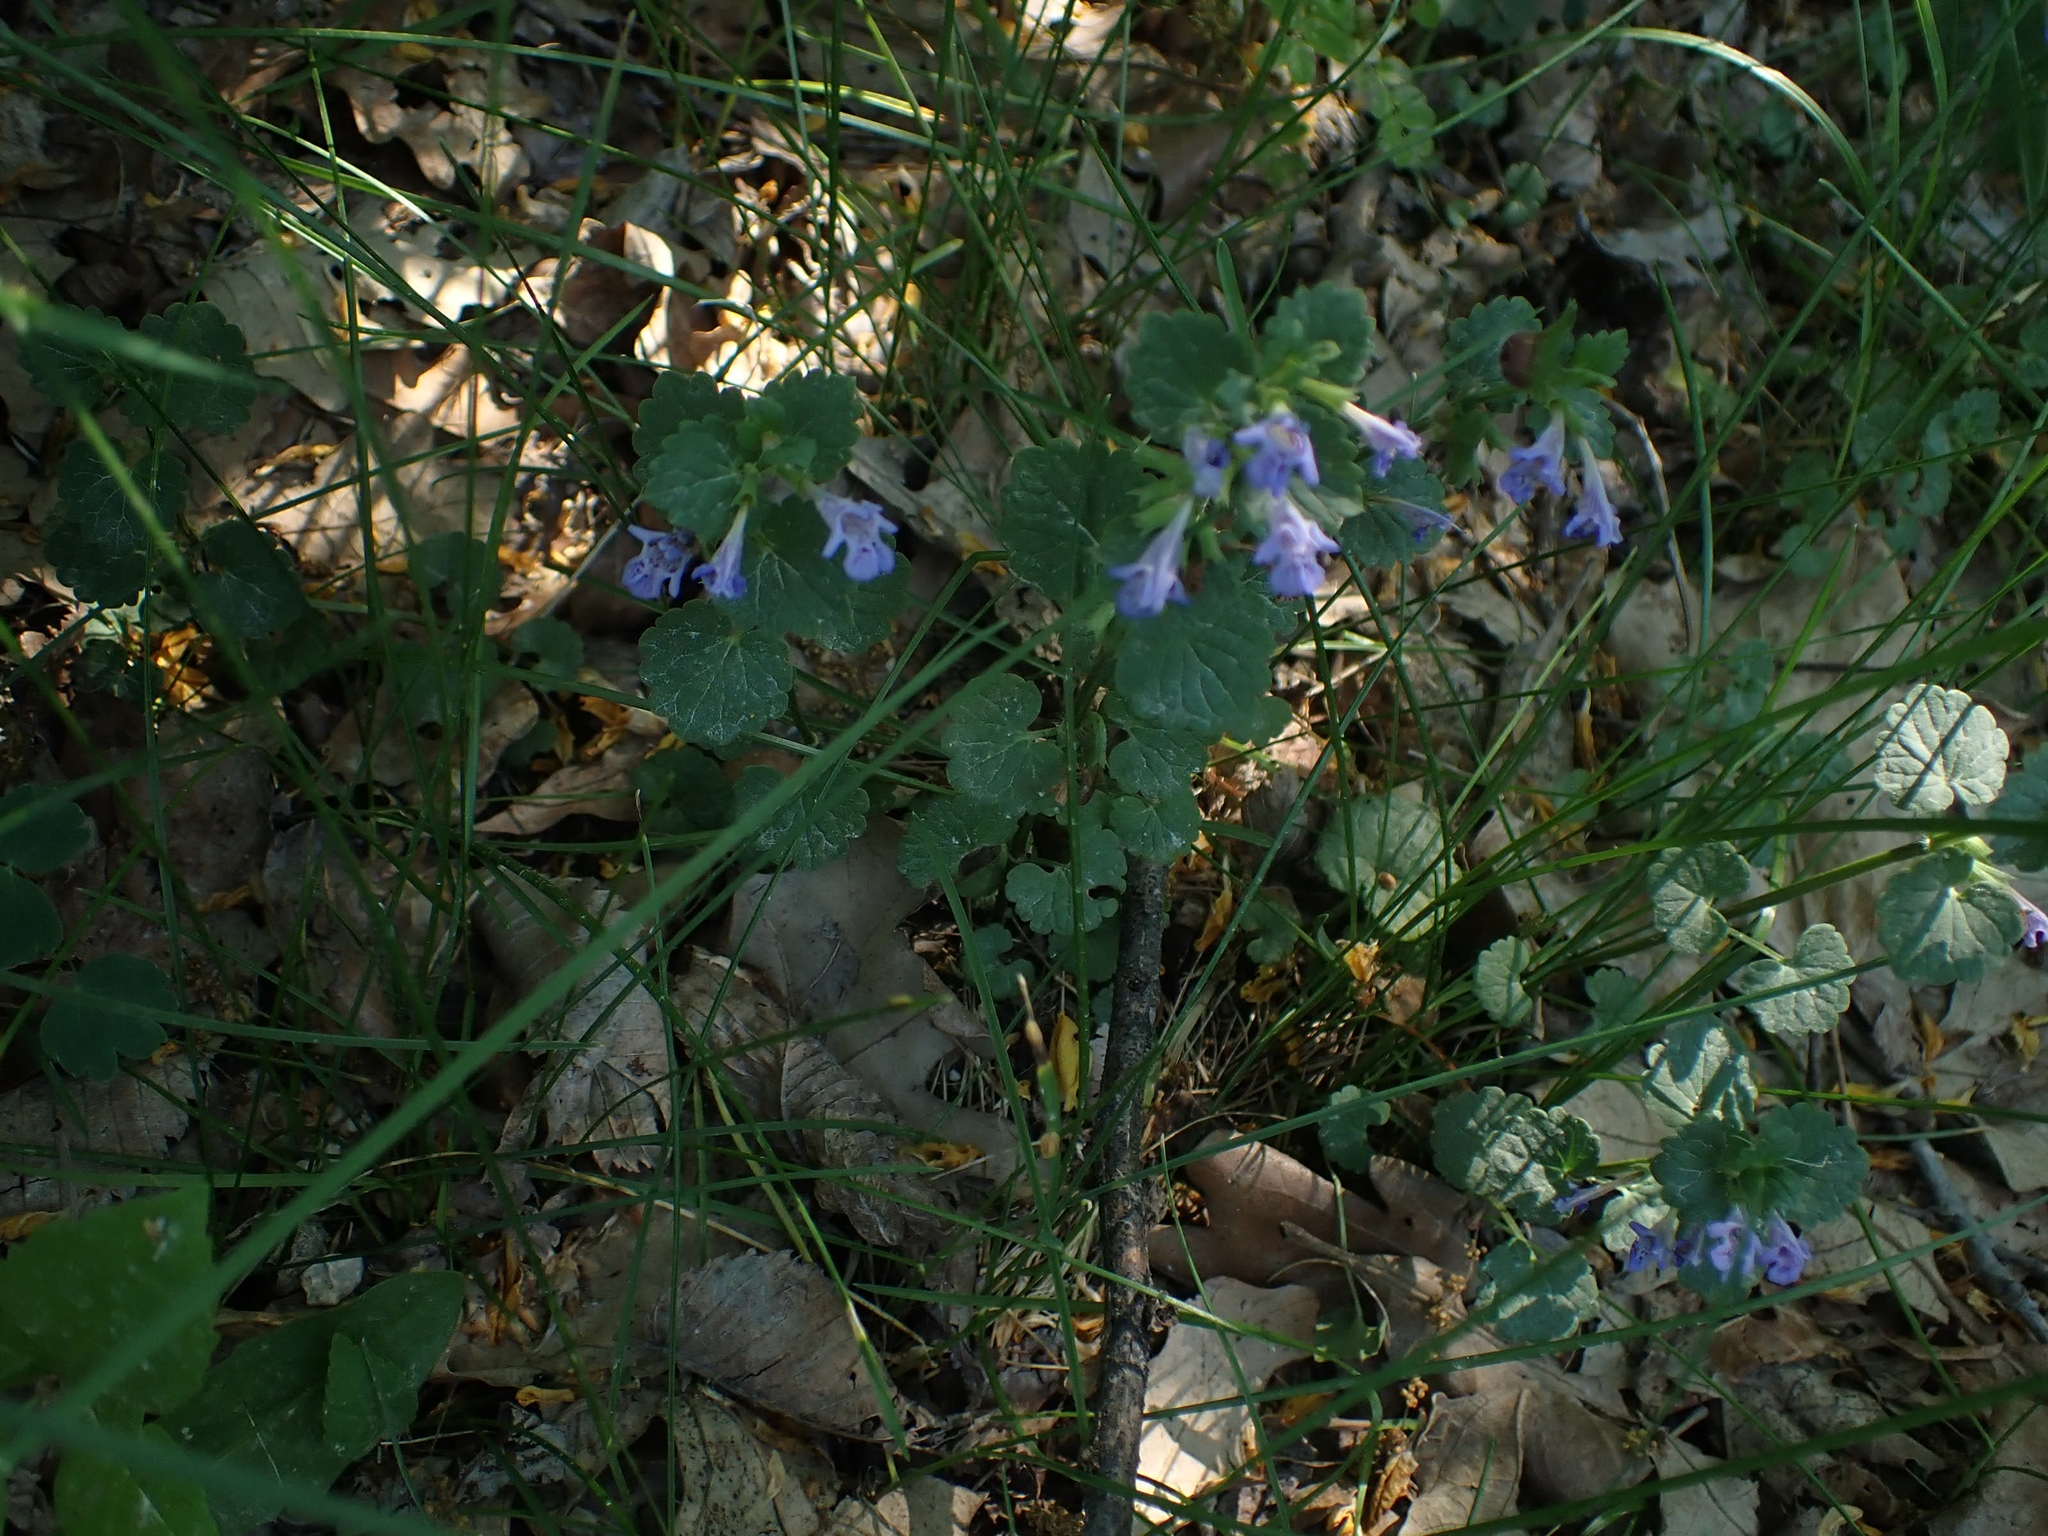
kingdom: Plantae
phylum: Tracheophyta
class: Magnoliopsida
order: Lamiales
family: Lamiaceae
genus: Glechoma
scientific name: Glechoma hederacea
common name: Ground ivy
